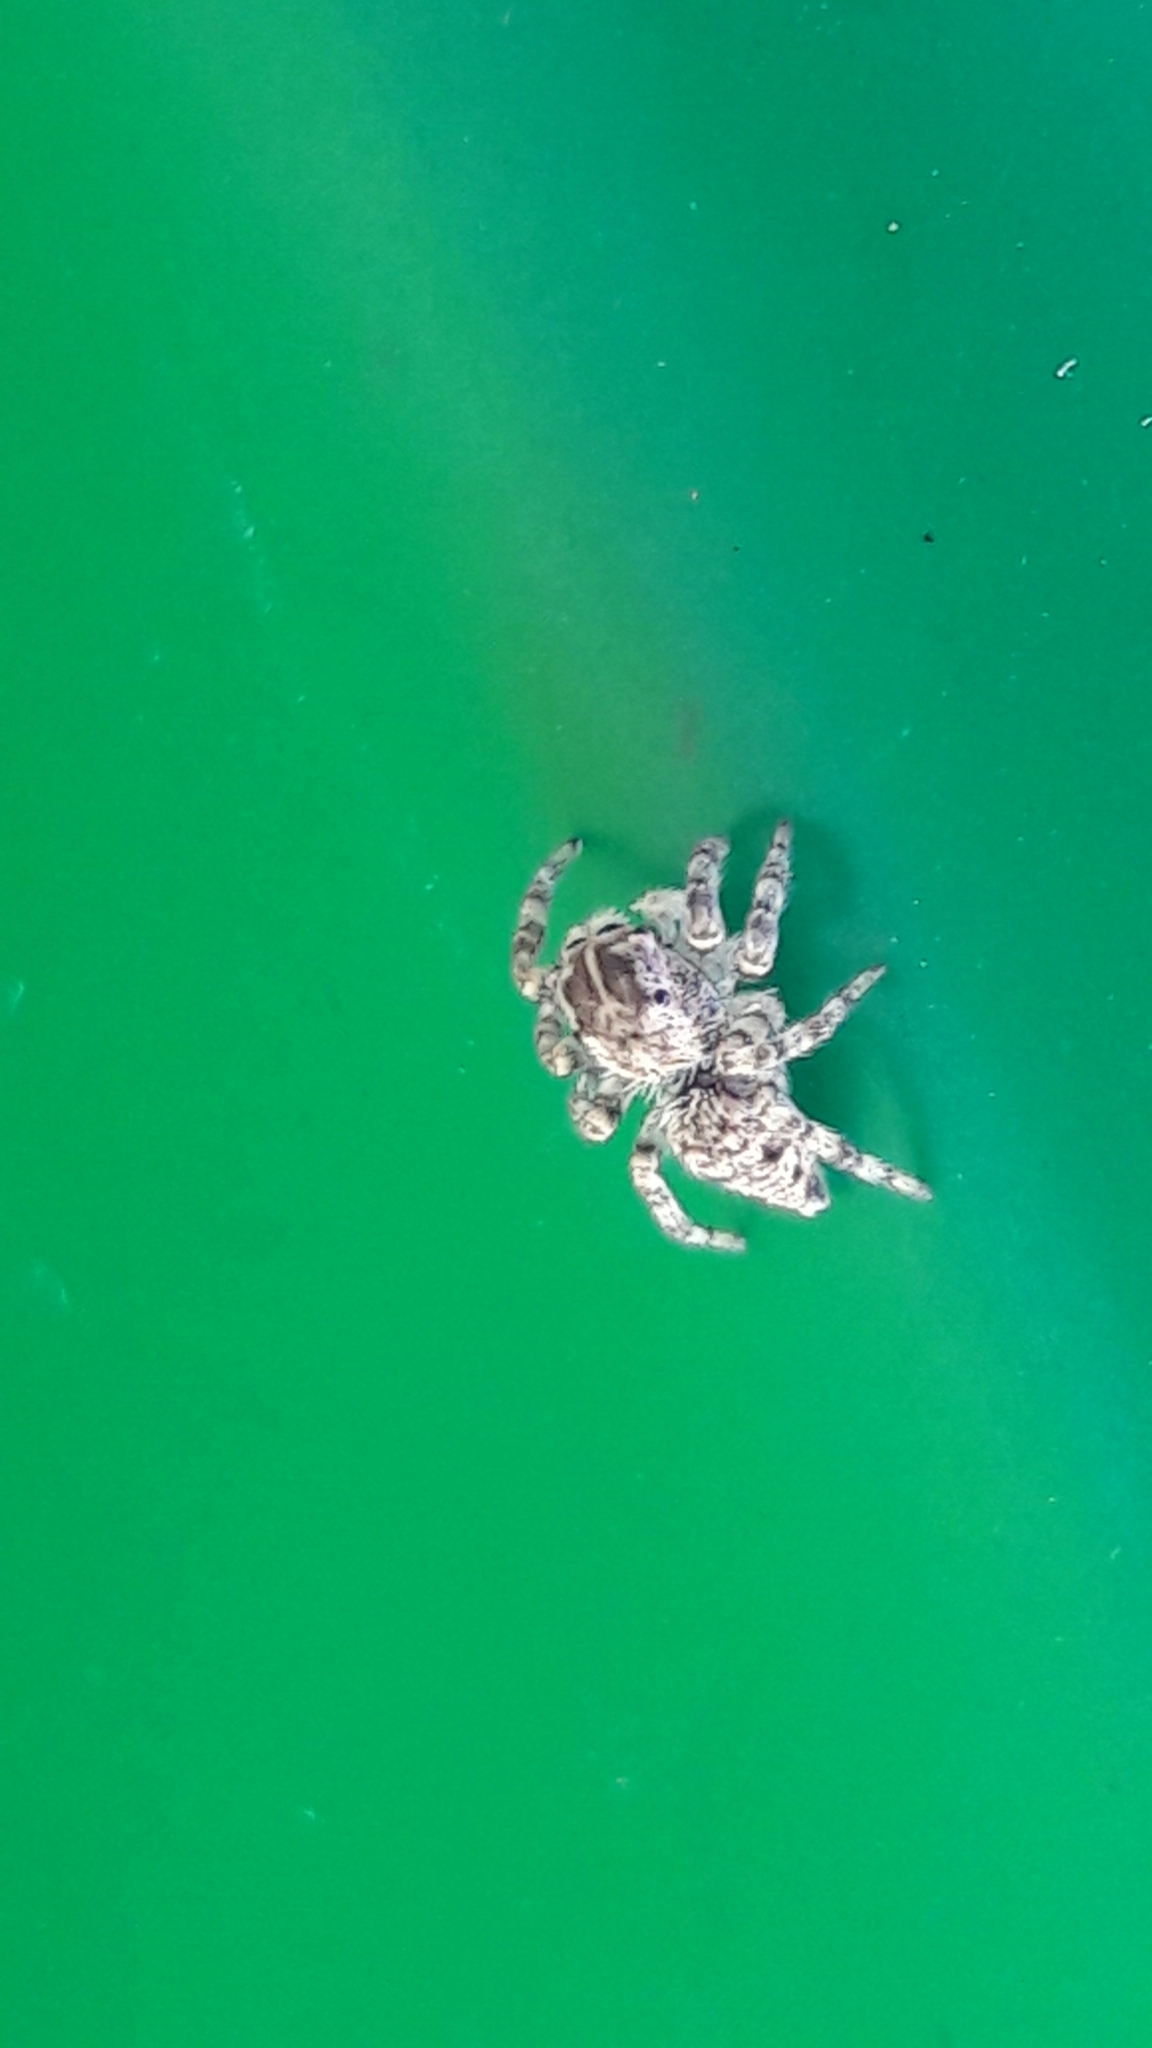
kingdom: Animalia
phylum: Arthropoda
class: Arachnida
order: Araneae
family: Salticidae
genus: Sumampattus
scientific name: Sumampattus quinqueradiatus
